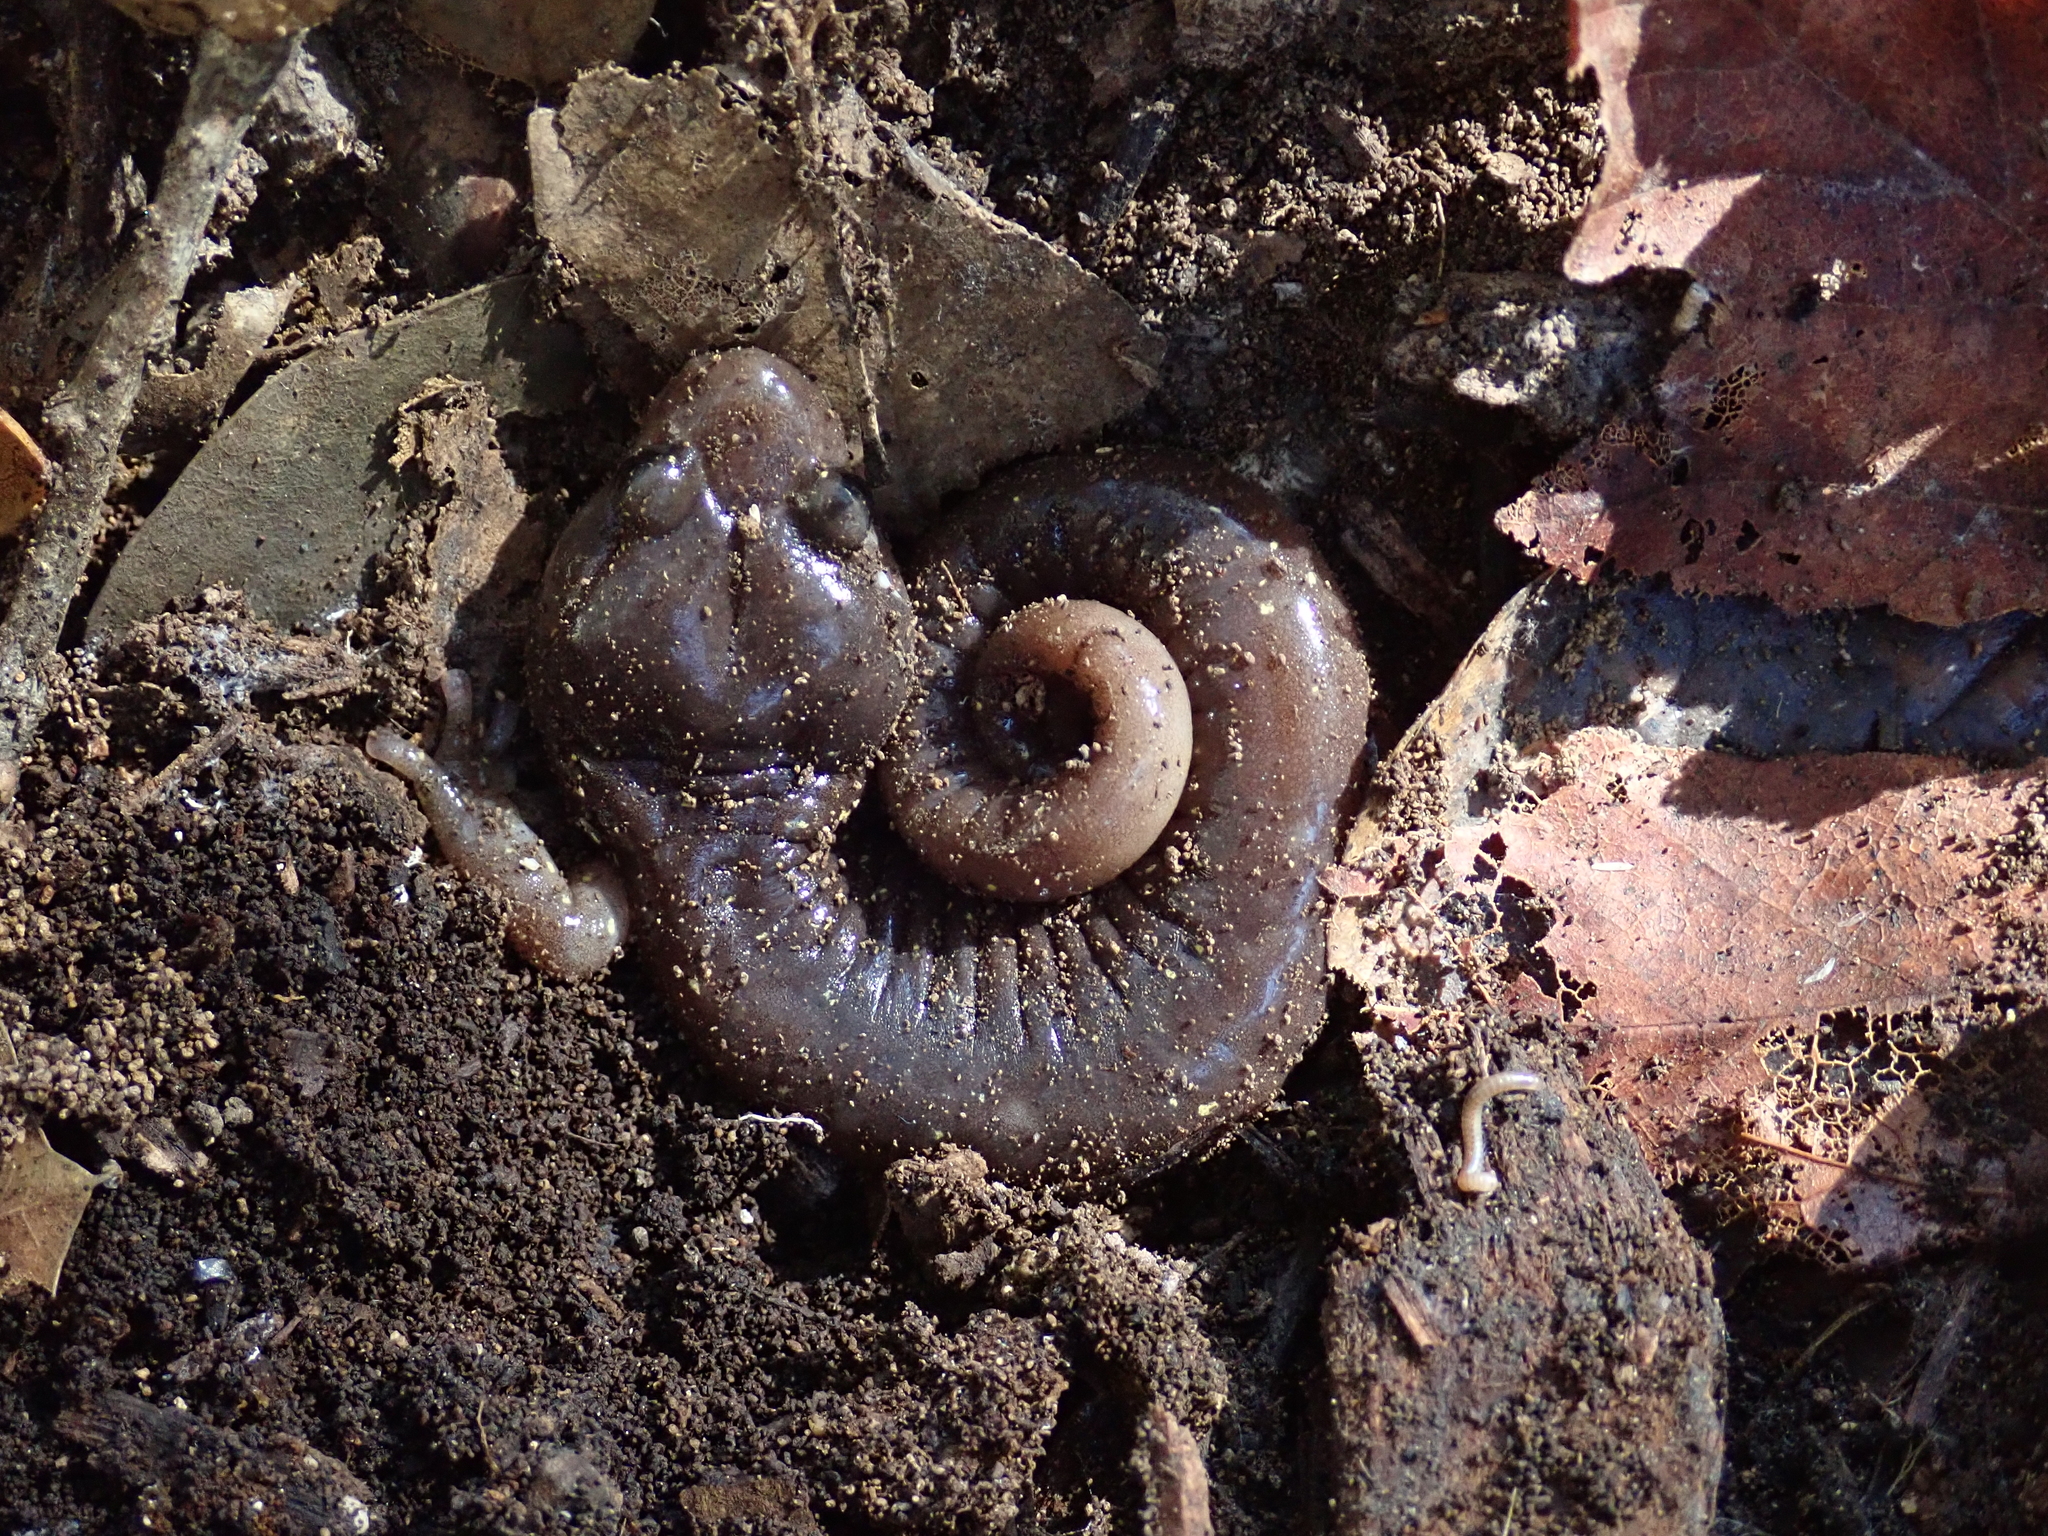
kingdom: Animalia
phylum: Chordata
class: Amphibia
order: Caudata
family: Plethodontidae
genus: Aneides
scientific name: Aneides lugubris
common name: Arboreal salamander
